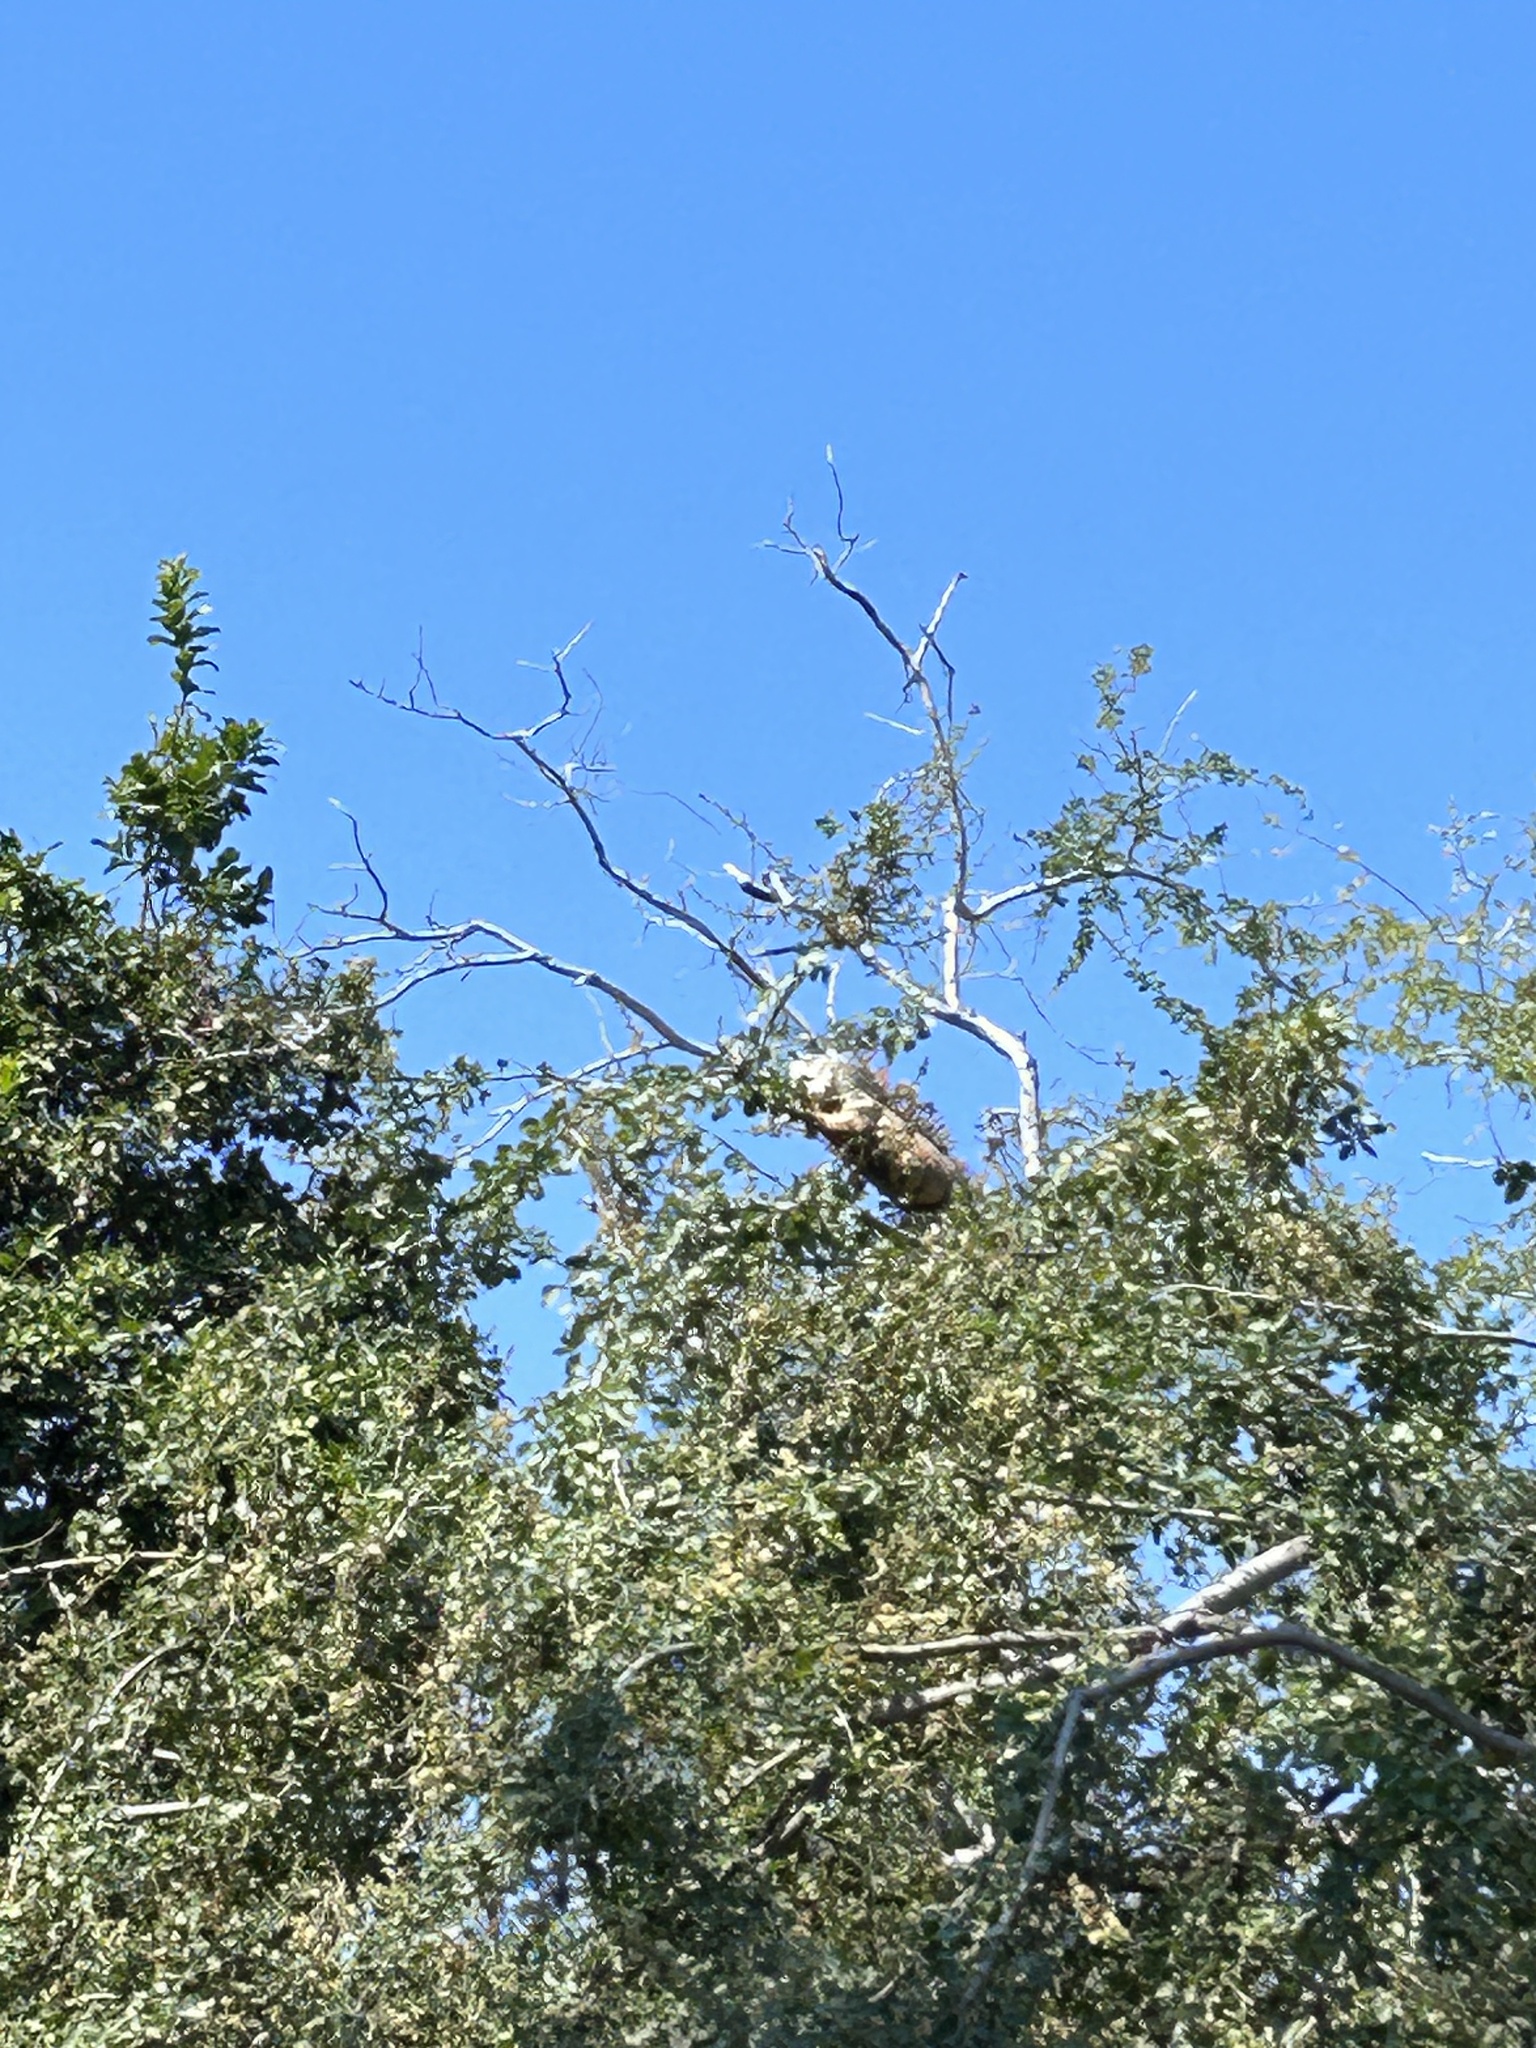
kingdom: Animalia
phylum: Chordata
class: Squamata
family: Iguanidae
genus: Iguana
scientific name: Iguana iguana
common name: Green iguana
